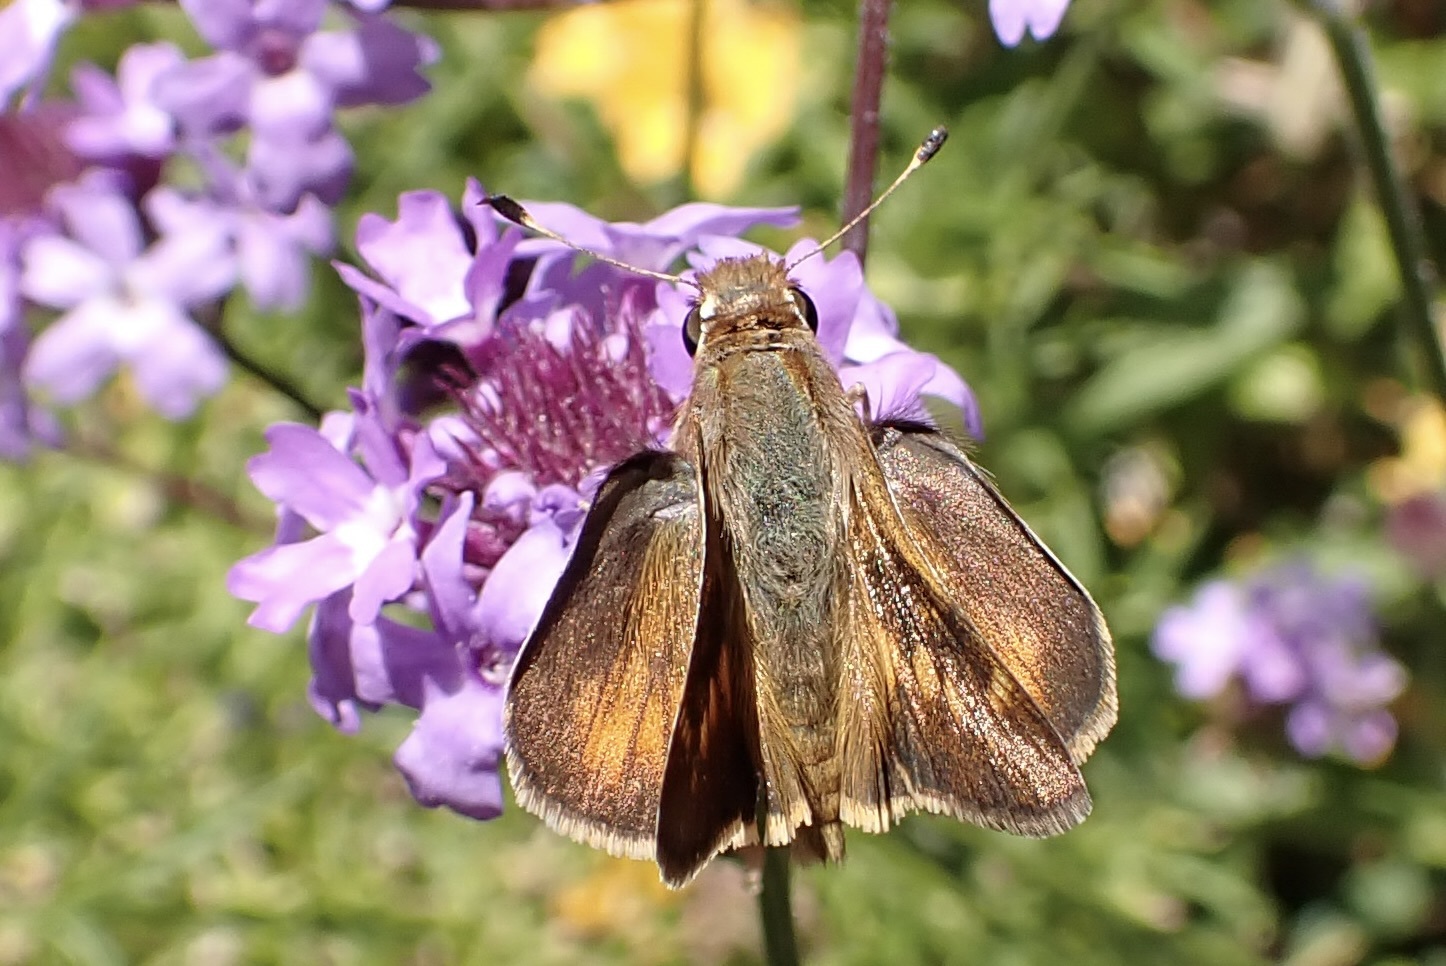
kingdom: Animalia
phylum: Arthropoda
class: Insecta
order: Lepidoptera
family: Hesperiidae
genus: Lon
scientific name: Lon melane
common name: Umber skipper
